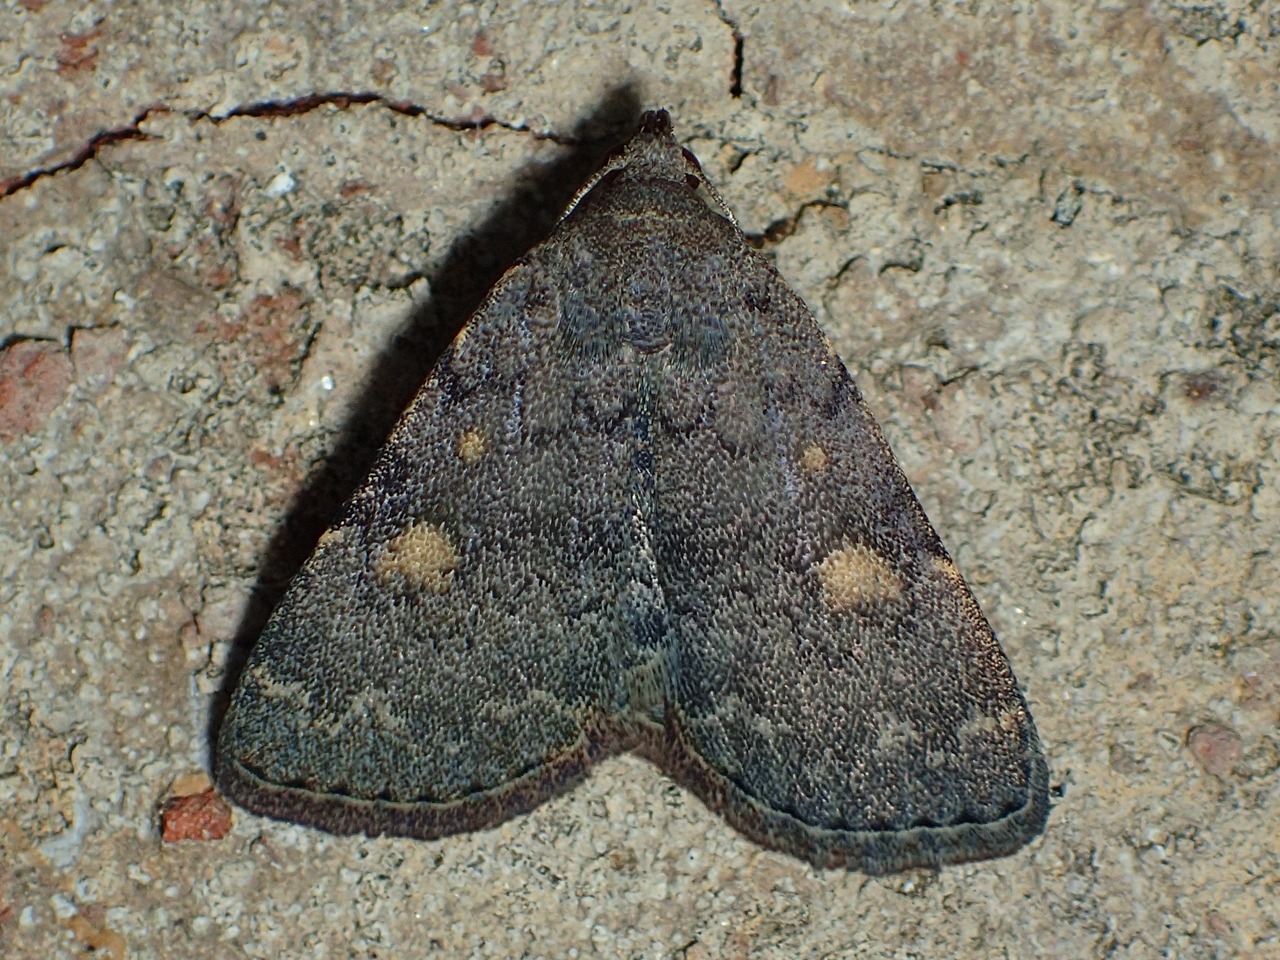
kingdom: Animalia
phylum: Arthropoda
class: Insecta
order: Lepidoptera
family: Erebidae
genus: Idia
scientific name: Idia aemula
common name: Common idia moth
